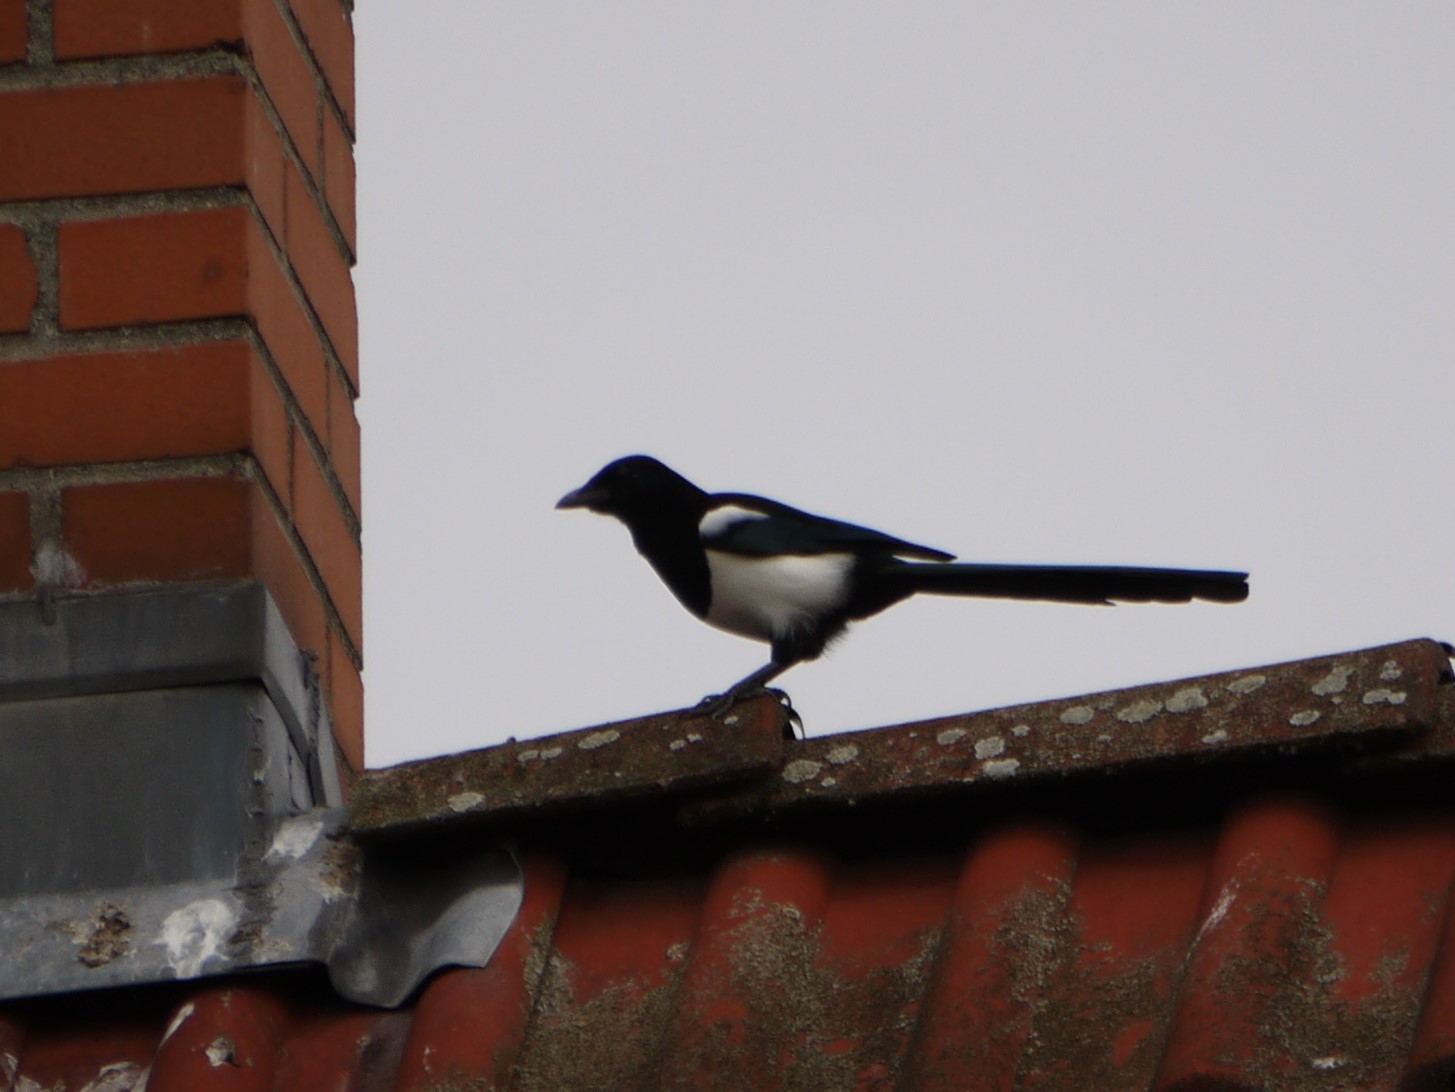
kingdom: Animalia
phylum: Chordata
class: Aves
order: Passeriformes
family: Corvidae
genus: Pica
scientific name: Pica pica
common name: Eurasian magpie
